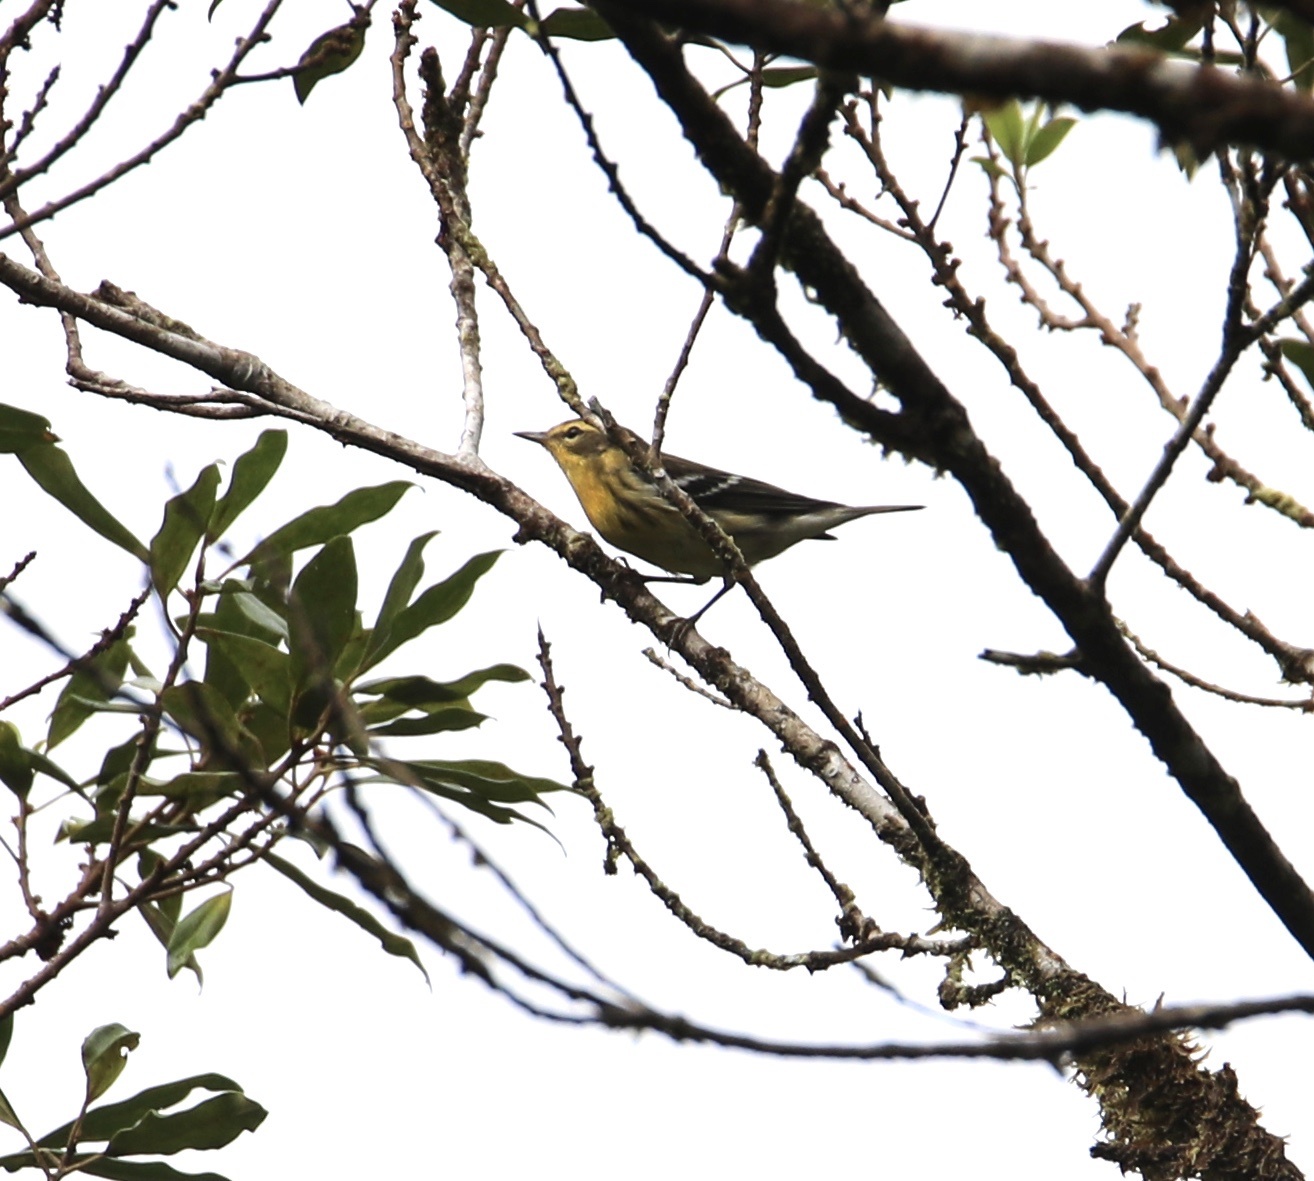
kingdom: Animalia
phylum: Chordata
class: Aves
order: Passeriformes
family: Parulidae
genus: Setophaga
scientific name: Setophaga fusca
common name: Blackburnian warbler
